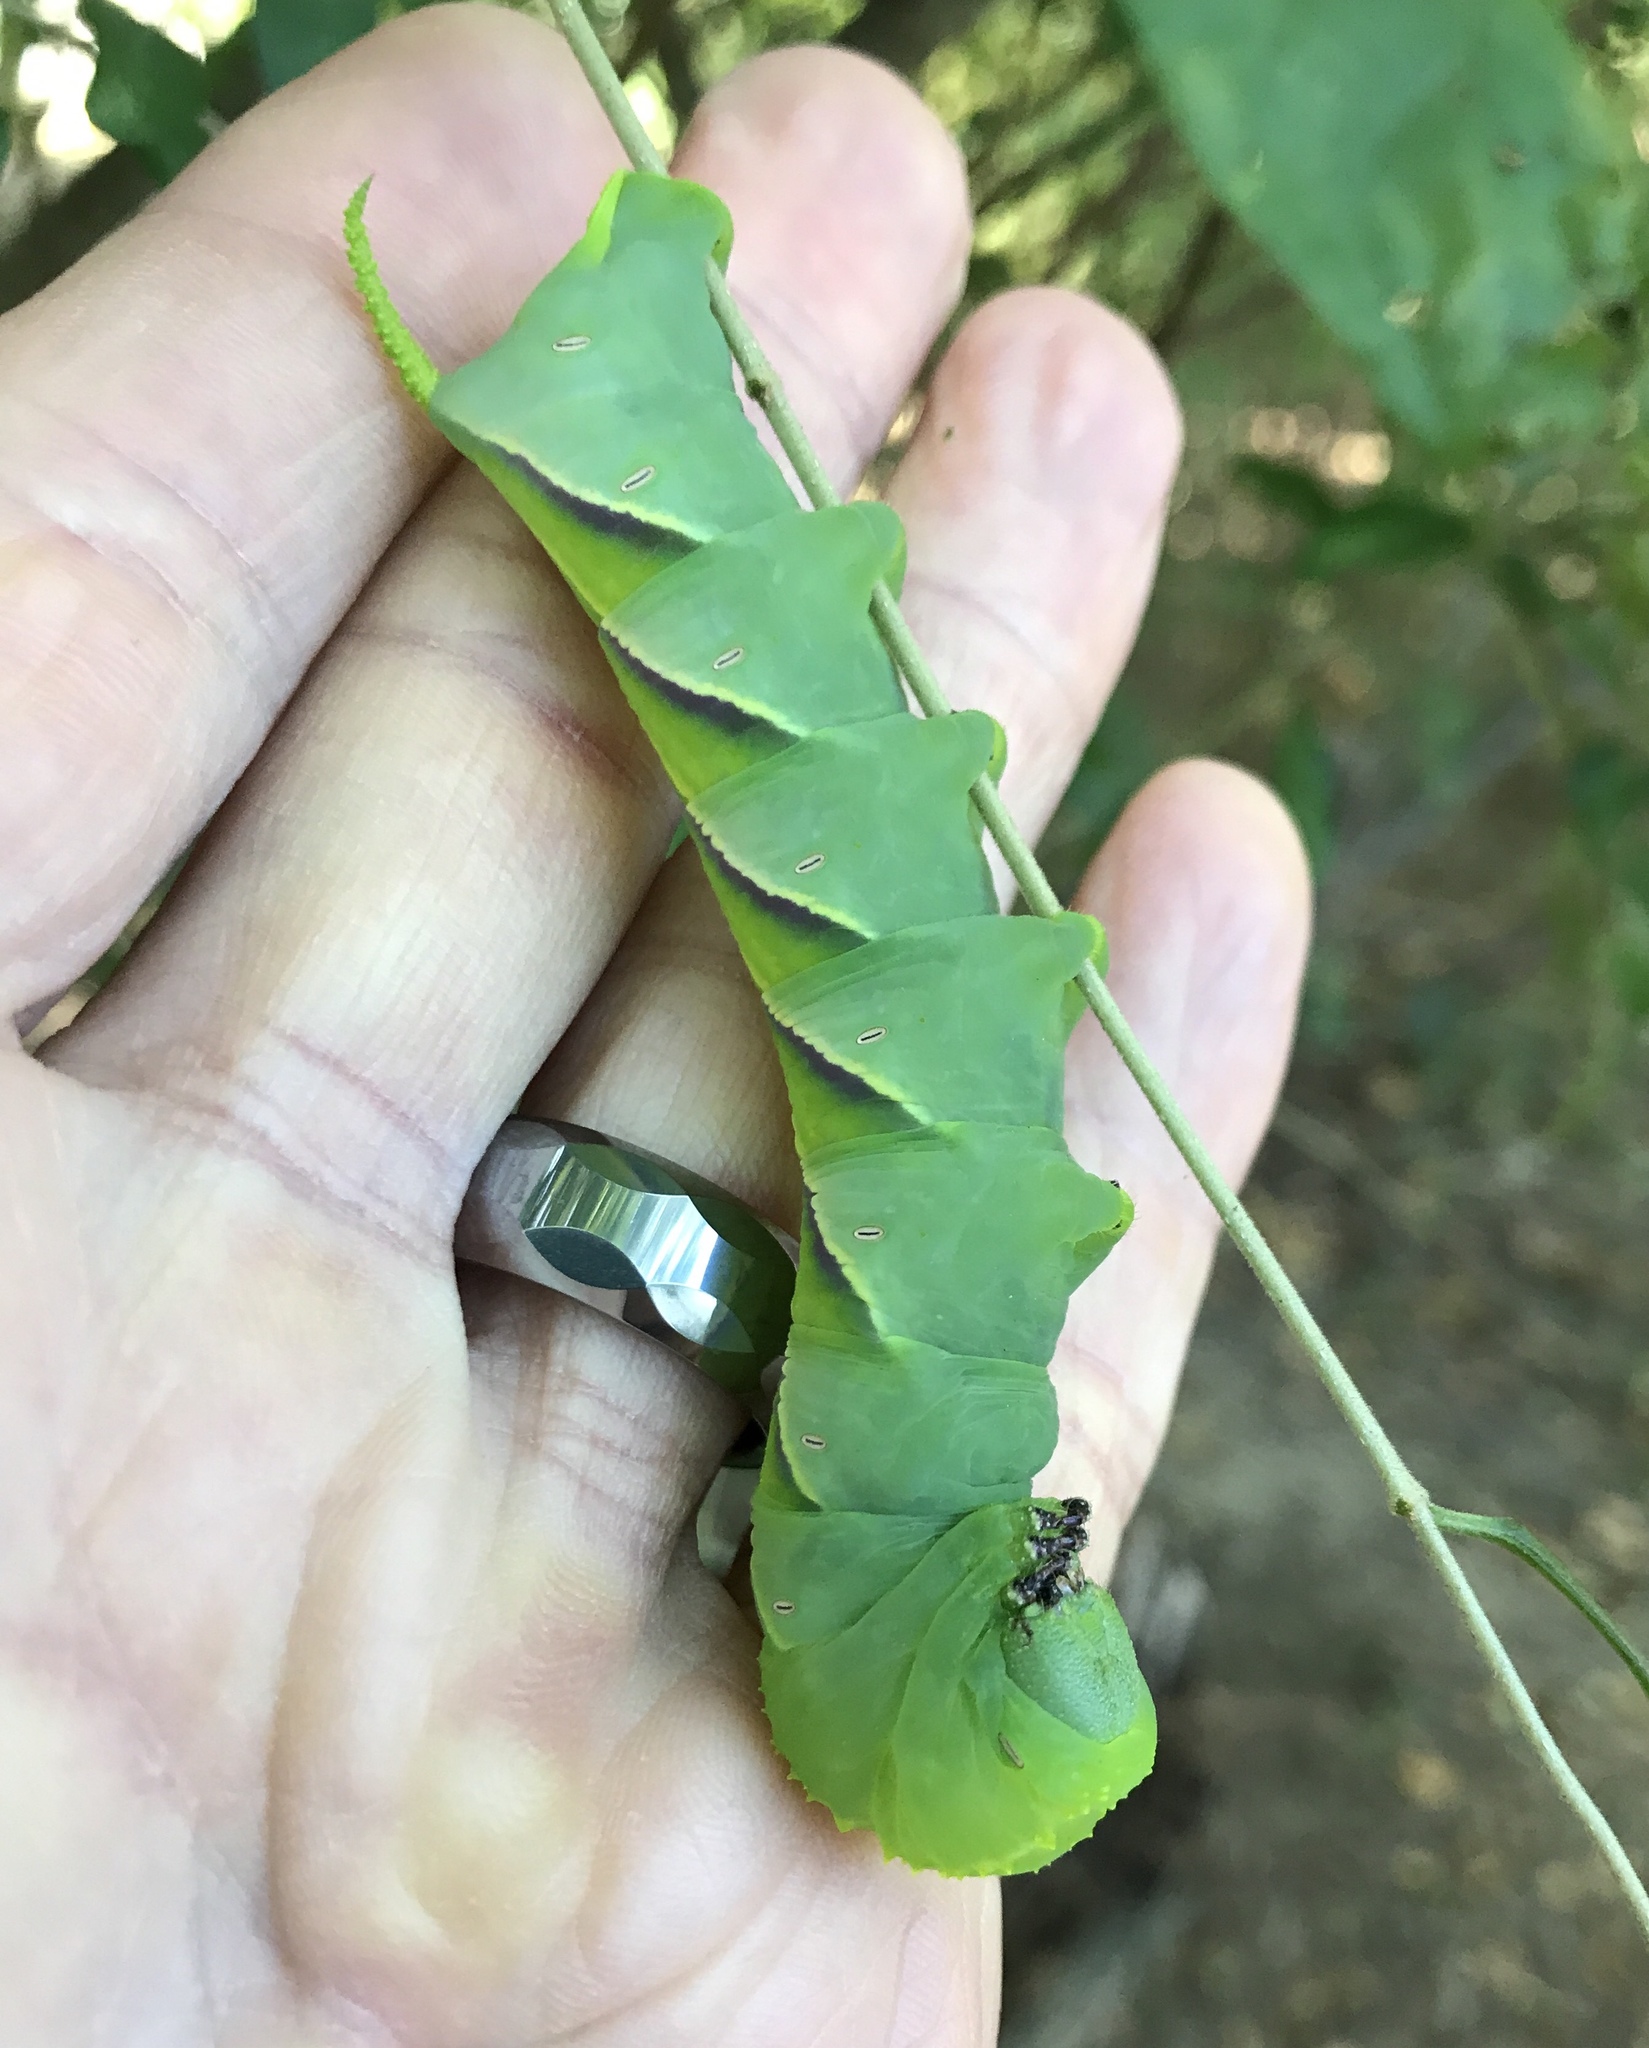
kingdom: Animalia
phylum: Arthropoda
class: Insecta
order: Lepidoptera
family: Sphingidae
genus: Manduca
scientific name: Manduca rustica
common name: Rustic sphinx
